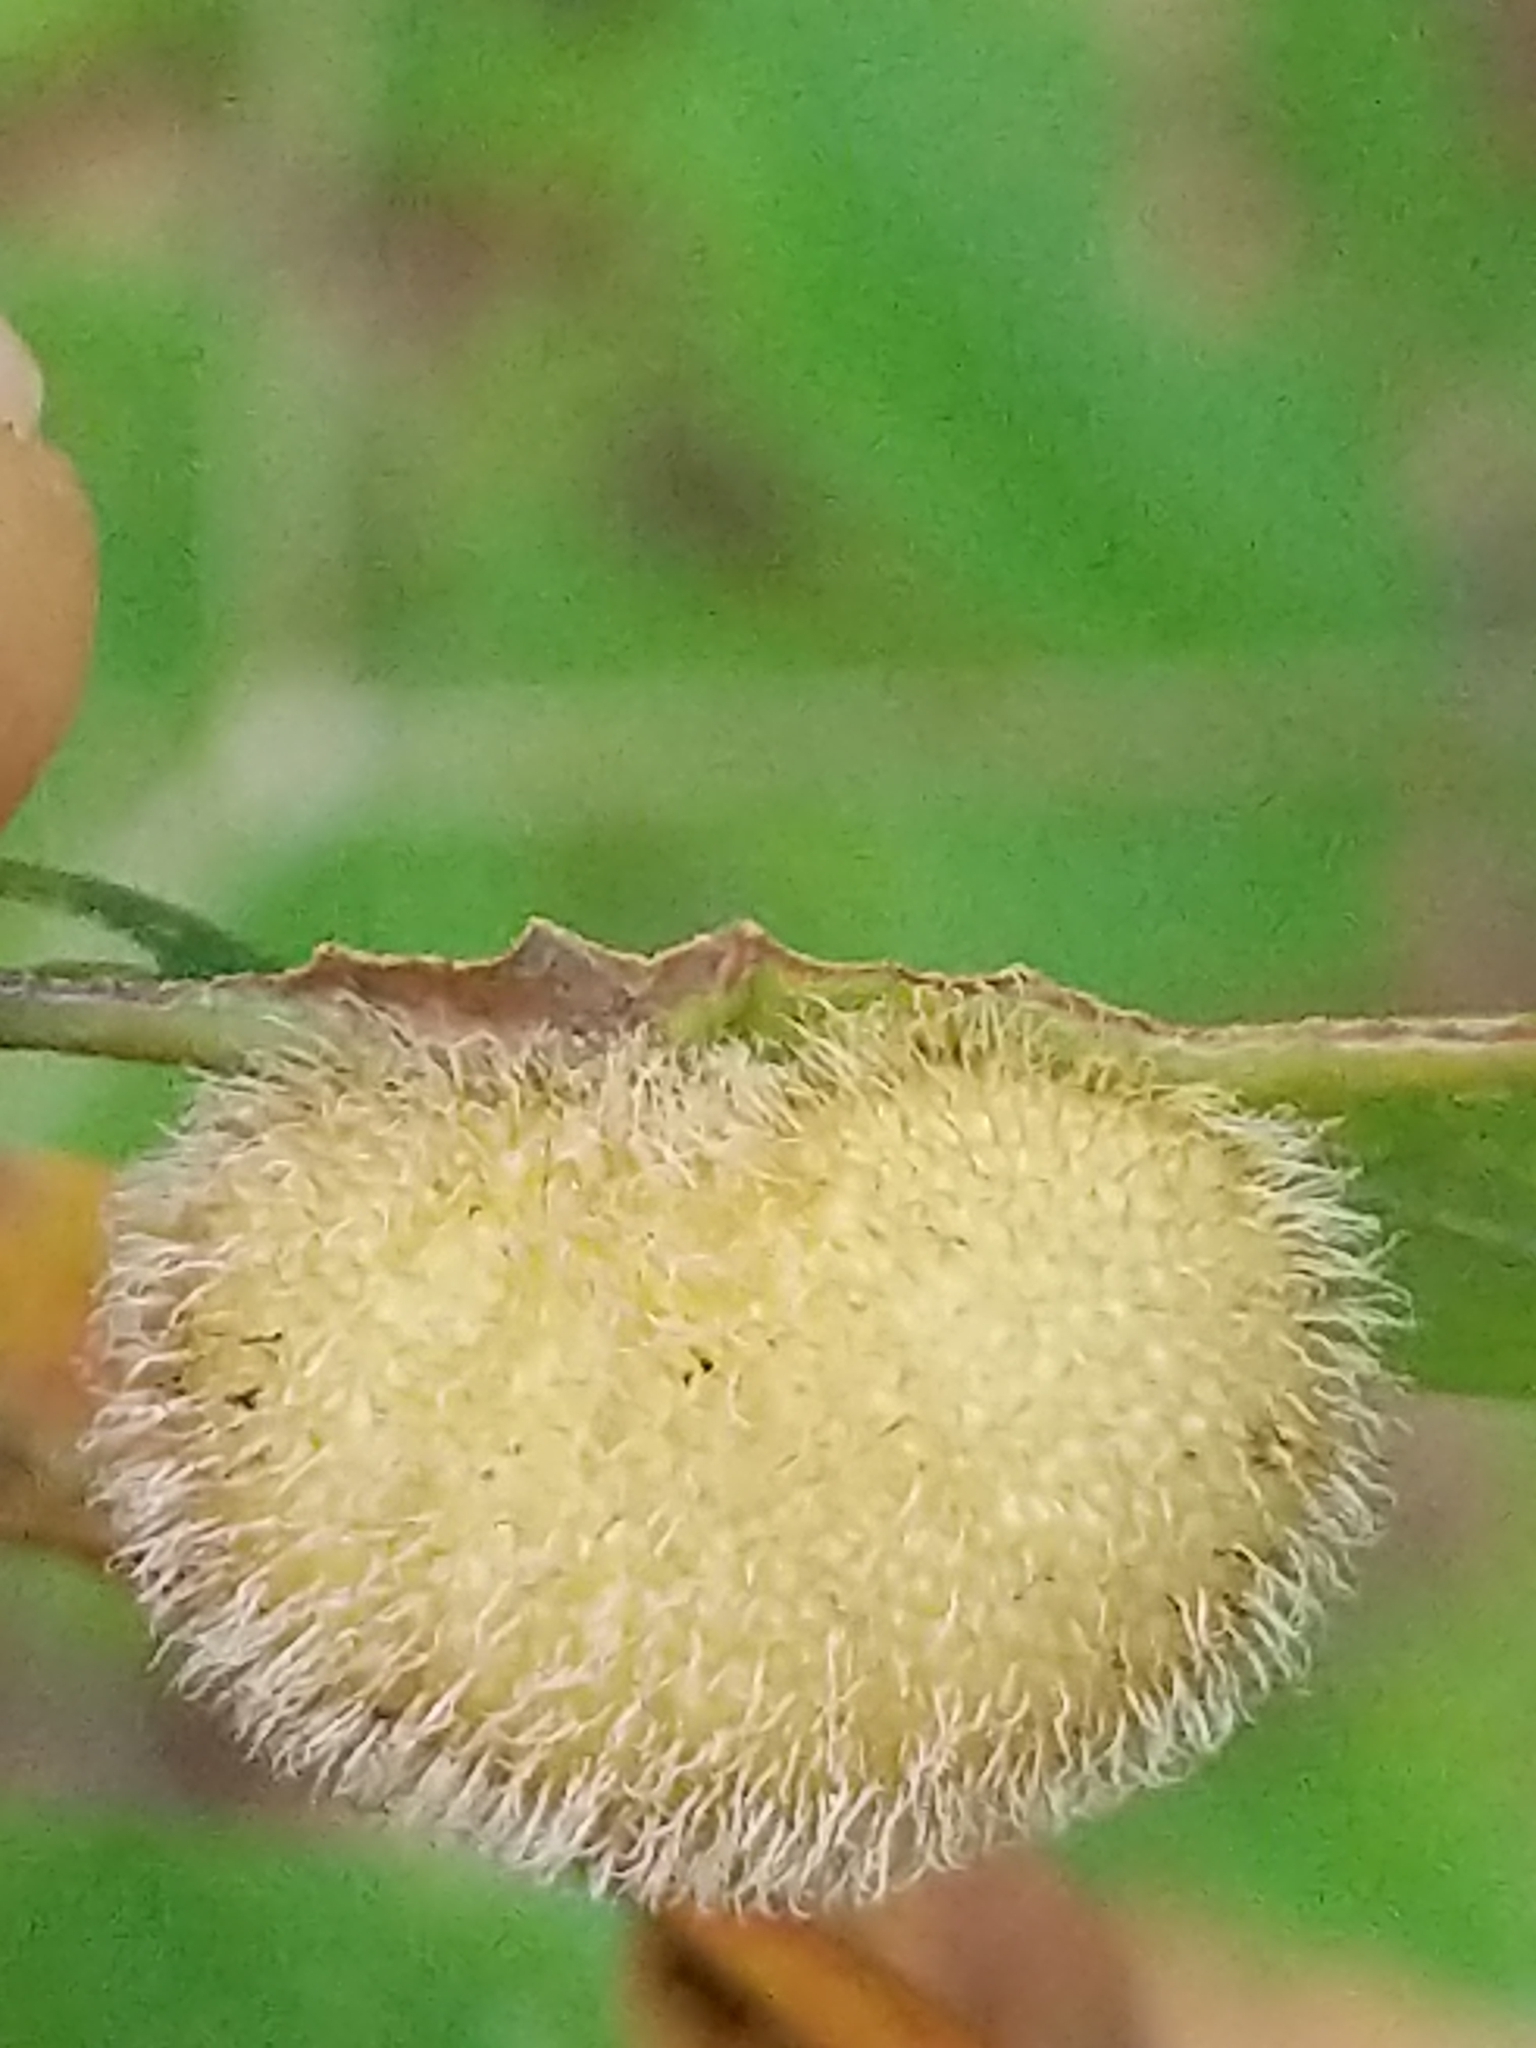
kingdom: Animalia
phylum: Arthropoda
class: Insecta
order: Hymenoptera
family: Cynipidae
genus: Acraspis
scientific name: Acraspis erinacei
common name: Hedgehog gall wasp
